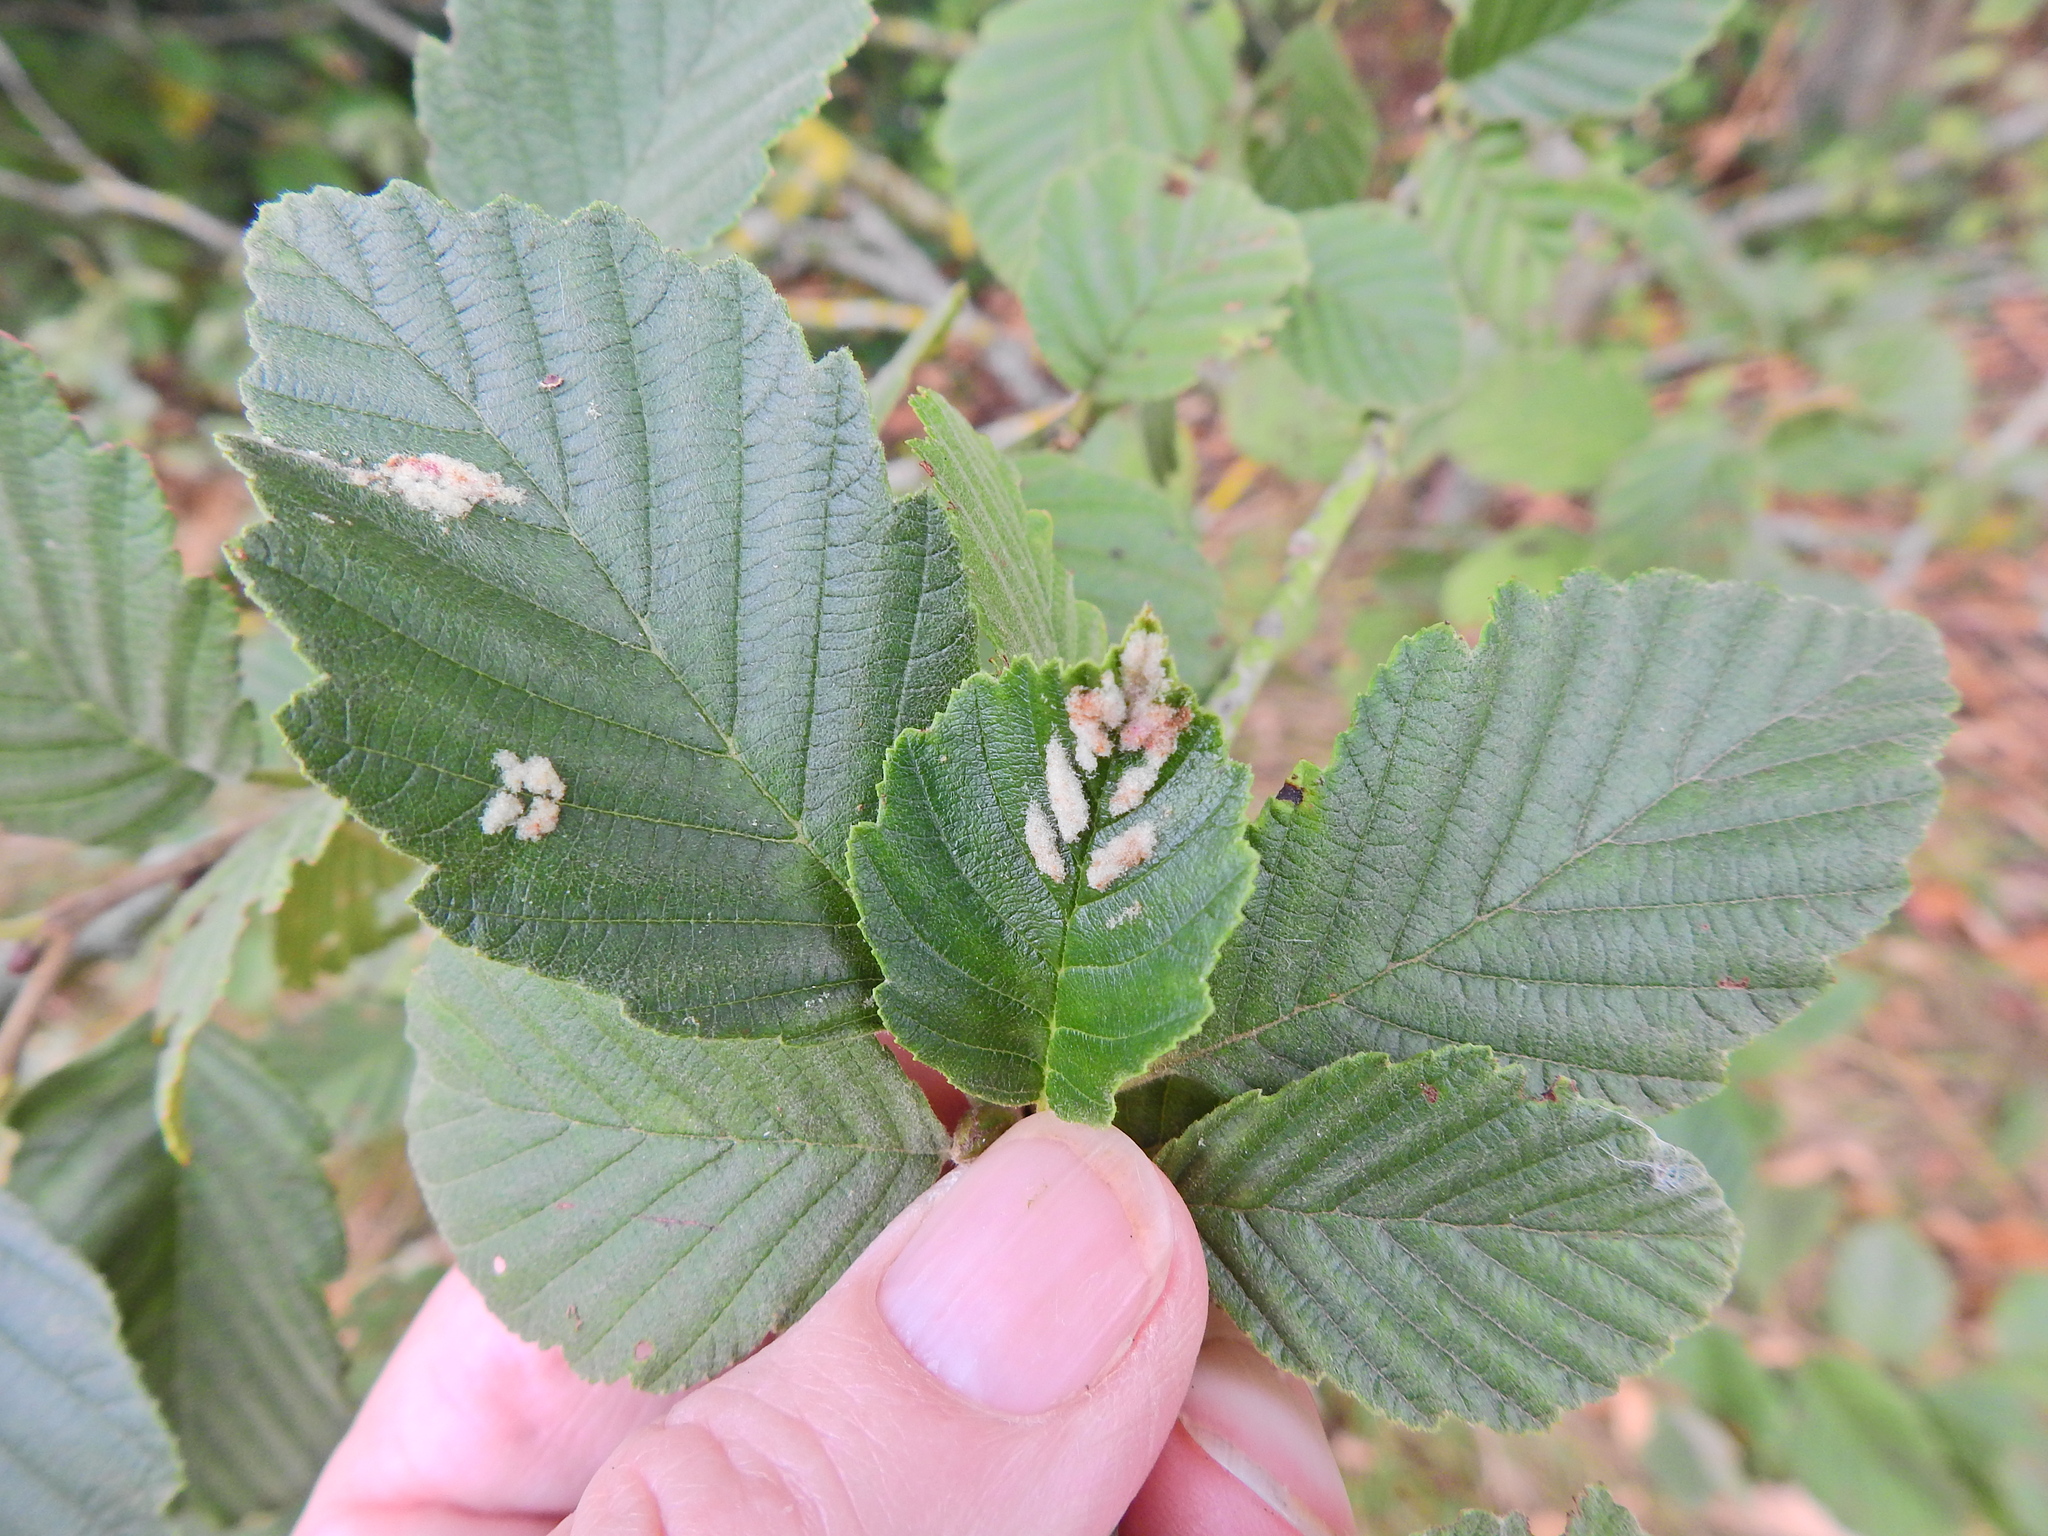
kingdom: Animalia
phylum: Arthropoda
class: Arachnida
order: Trombidiformes
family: Eriophyidae
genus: Acalitus
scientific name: Acalitus brevitarsus
